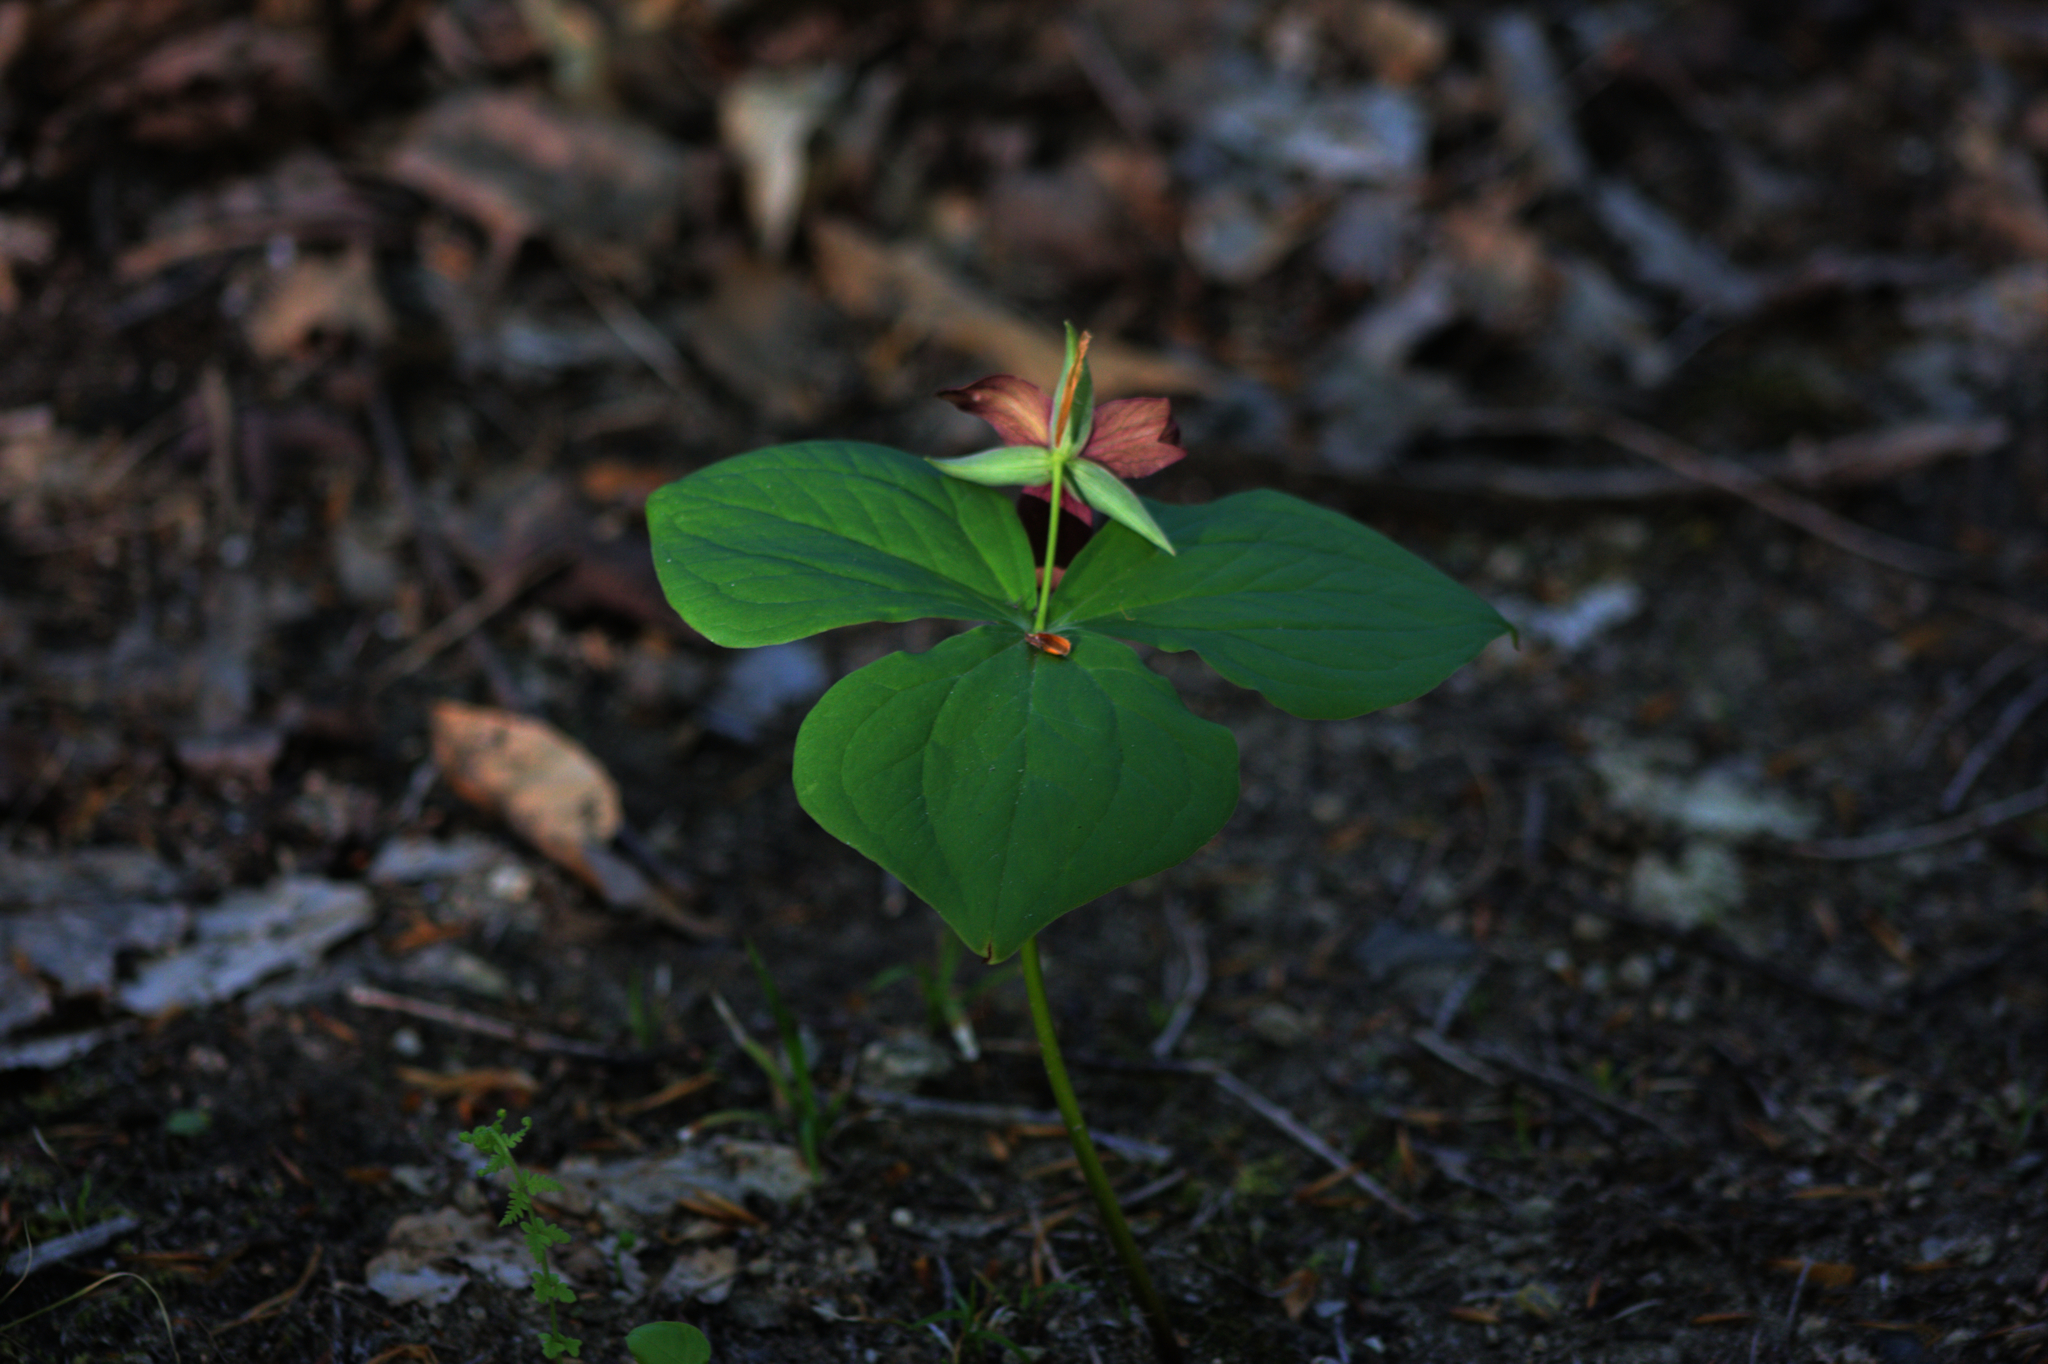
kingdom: Plantae
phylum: Tracheophyta
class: Liliopsida
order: Liliales
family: Melanthiaceae
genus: Trillium
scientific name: Trillium erectum
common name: Purple trillium
